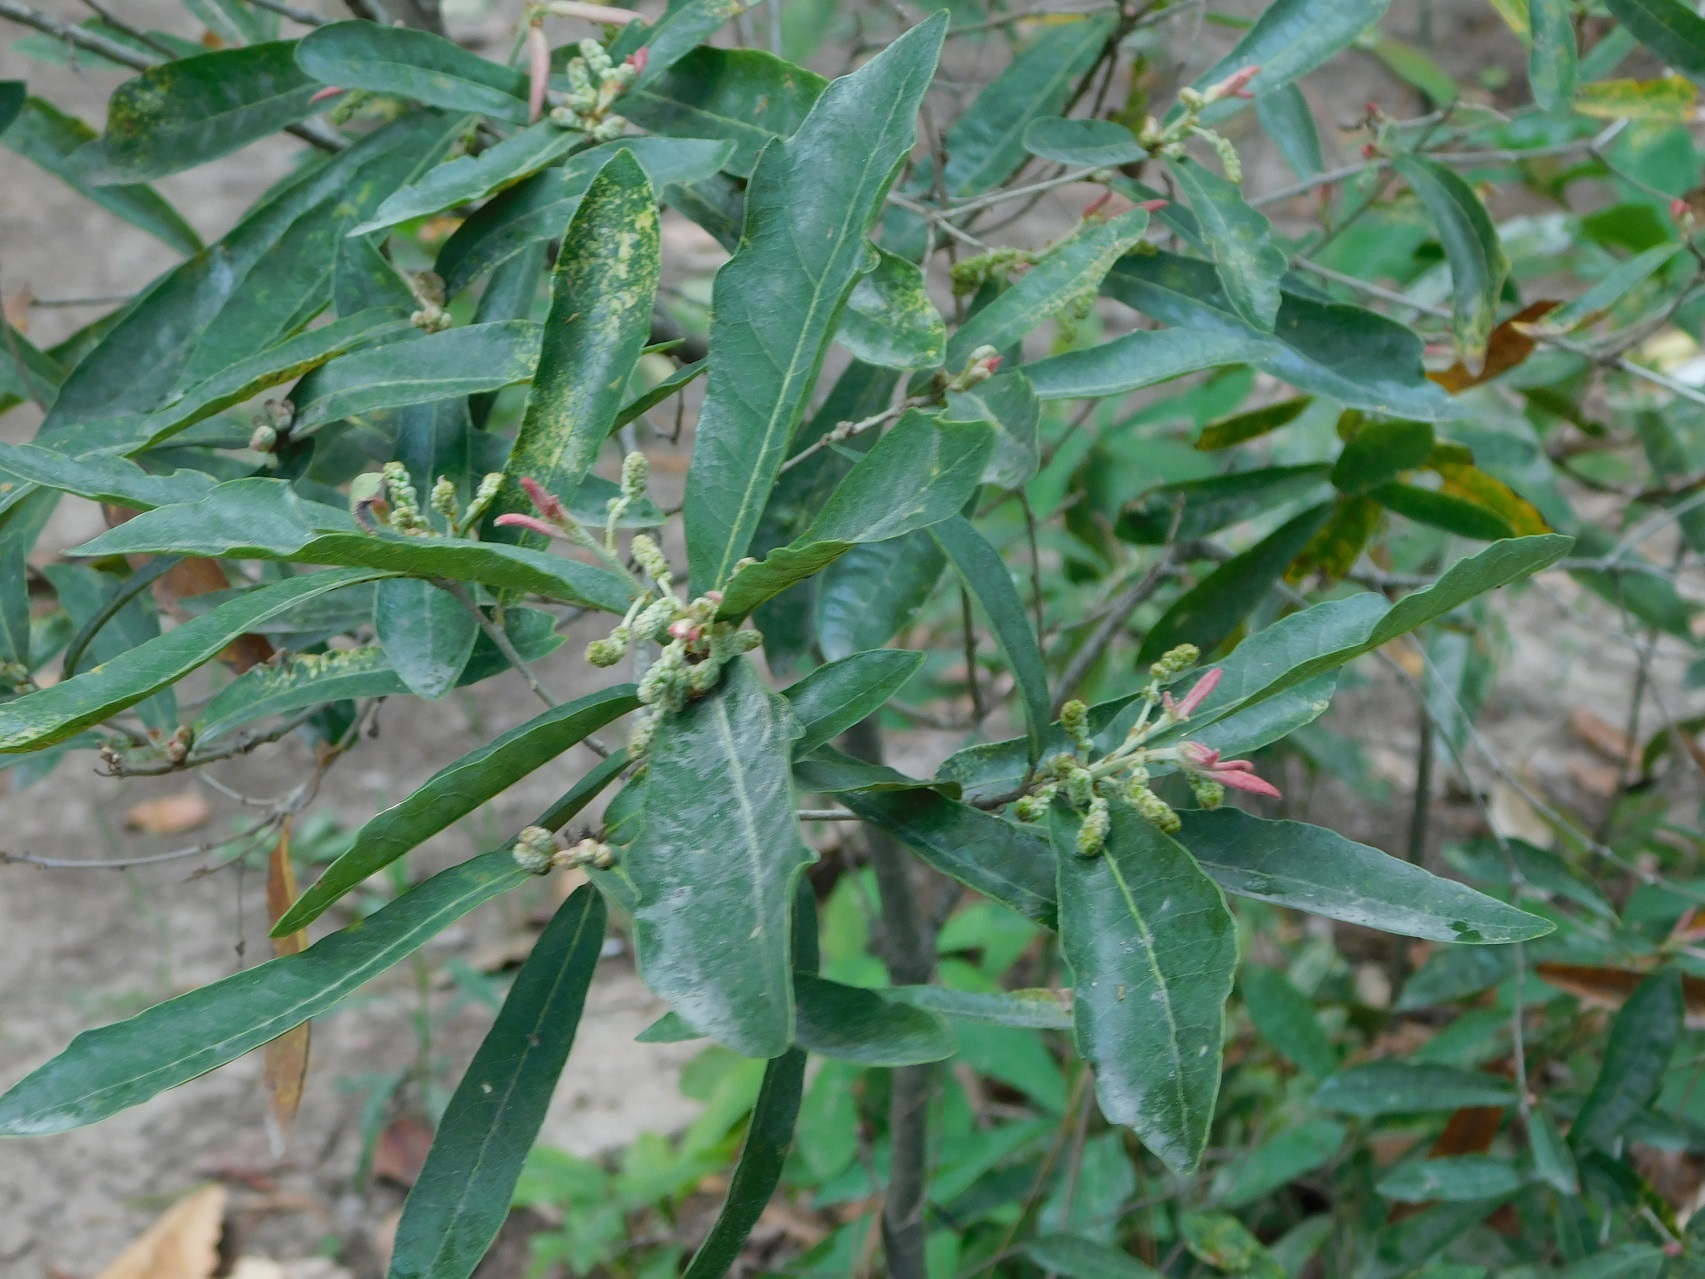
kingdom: Plantae
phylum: Tracheophyta
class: Magnoliopsida
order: Fagales
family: Fagaceae
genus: Quercus
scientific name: Quercus sebifera
